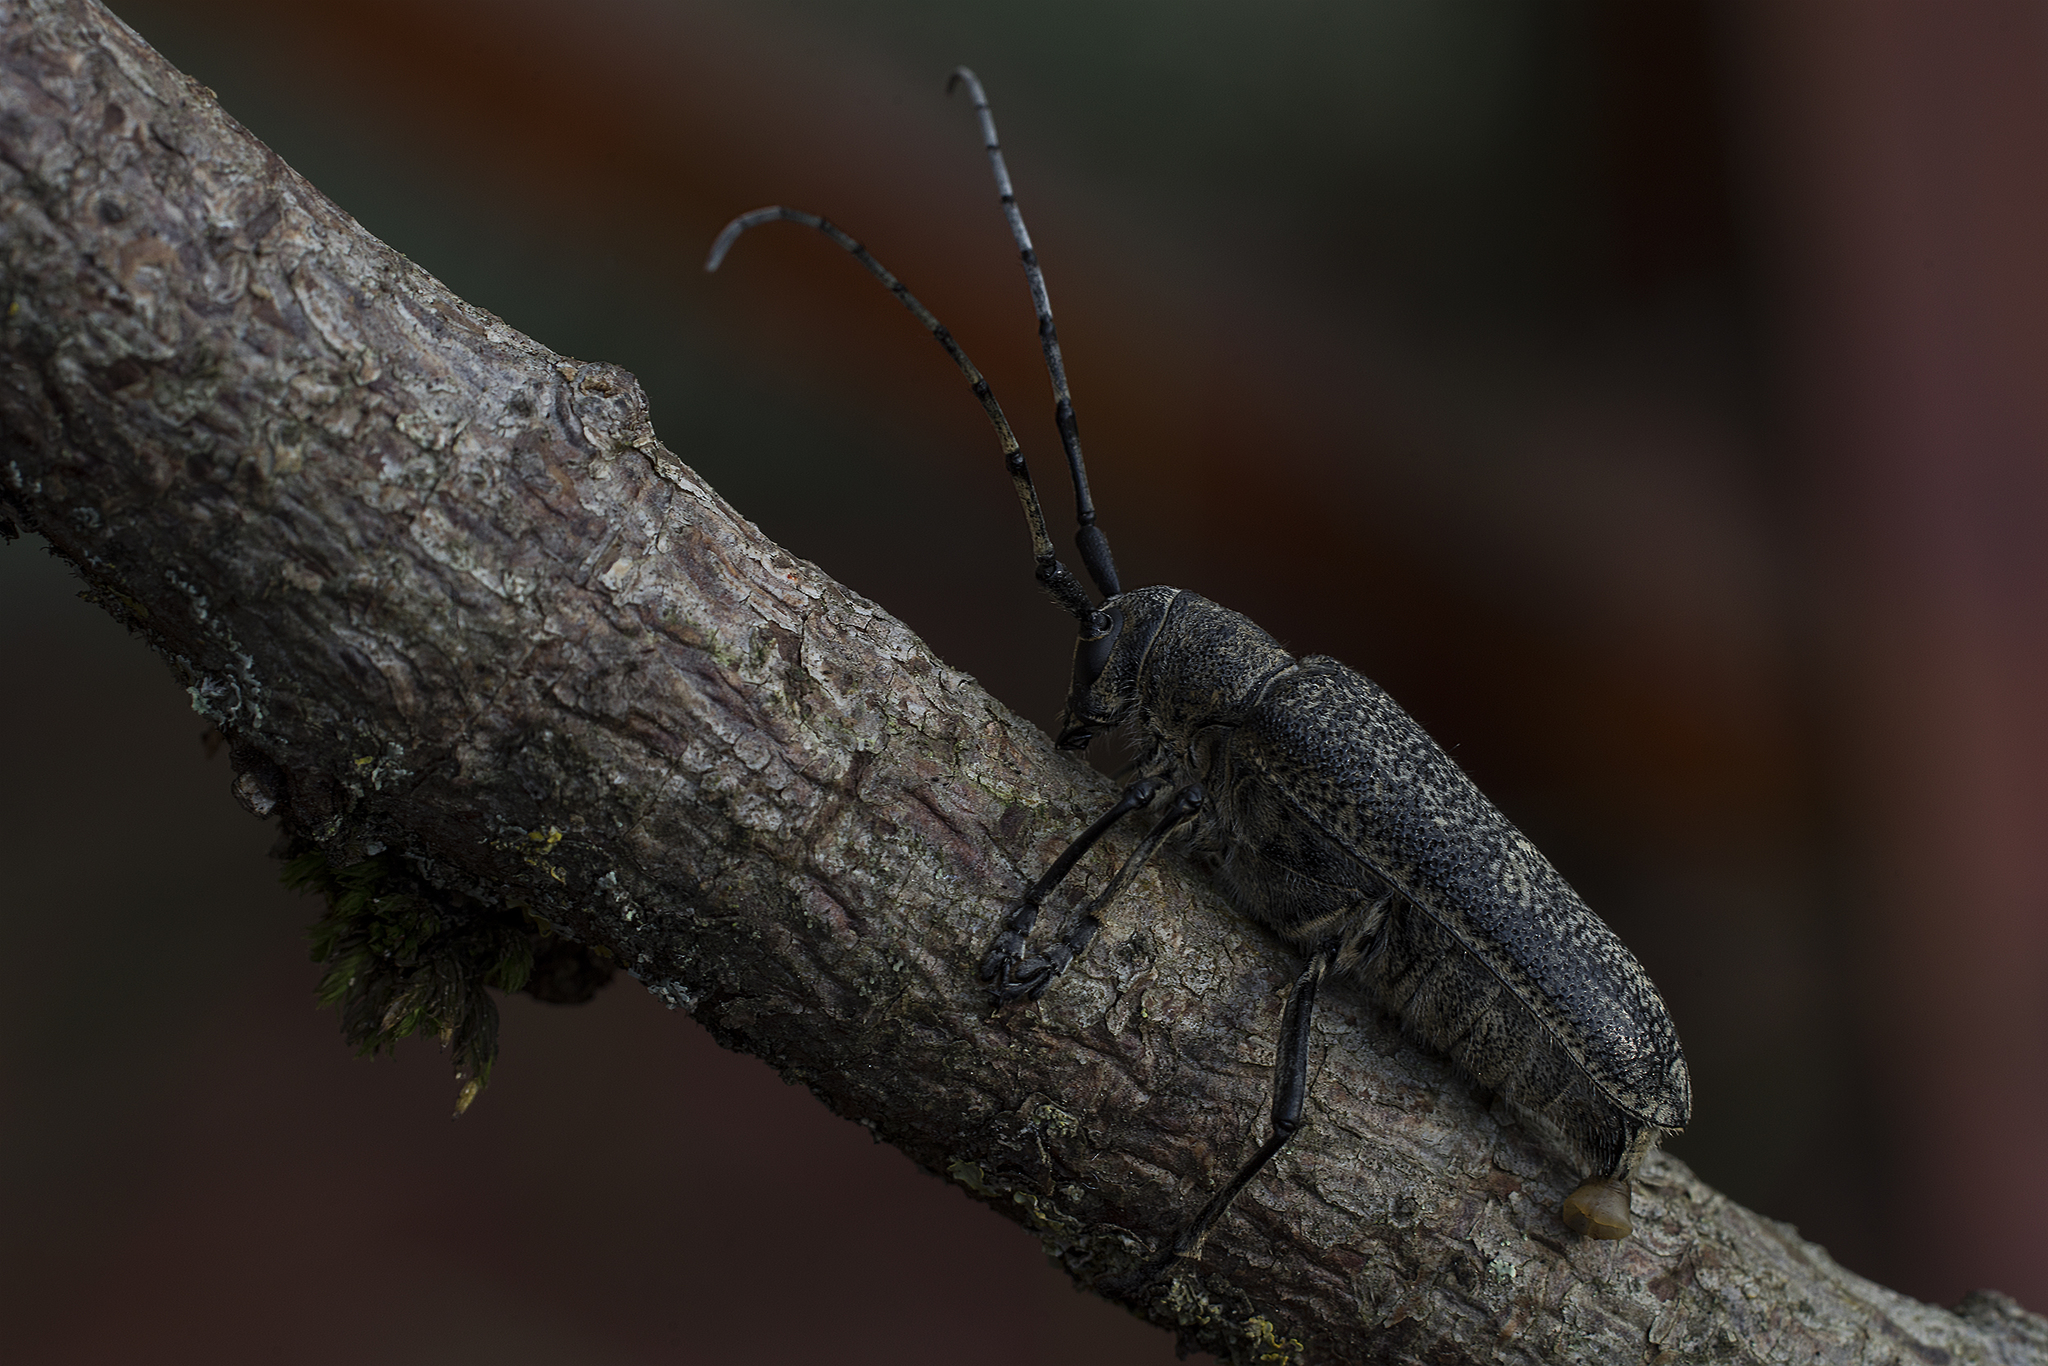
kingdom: Animalia
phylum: Arthropoda
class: Insecta
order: Coleoptera
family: Cerambycidae
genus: Saperda
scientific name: Saperda carcharias
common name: Poplar borer
